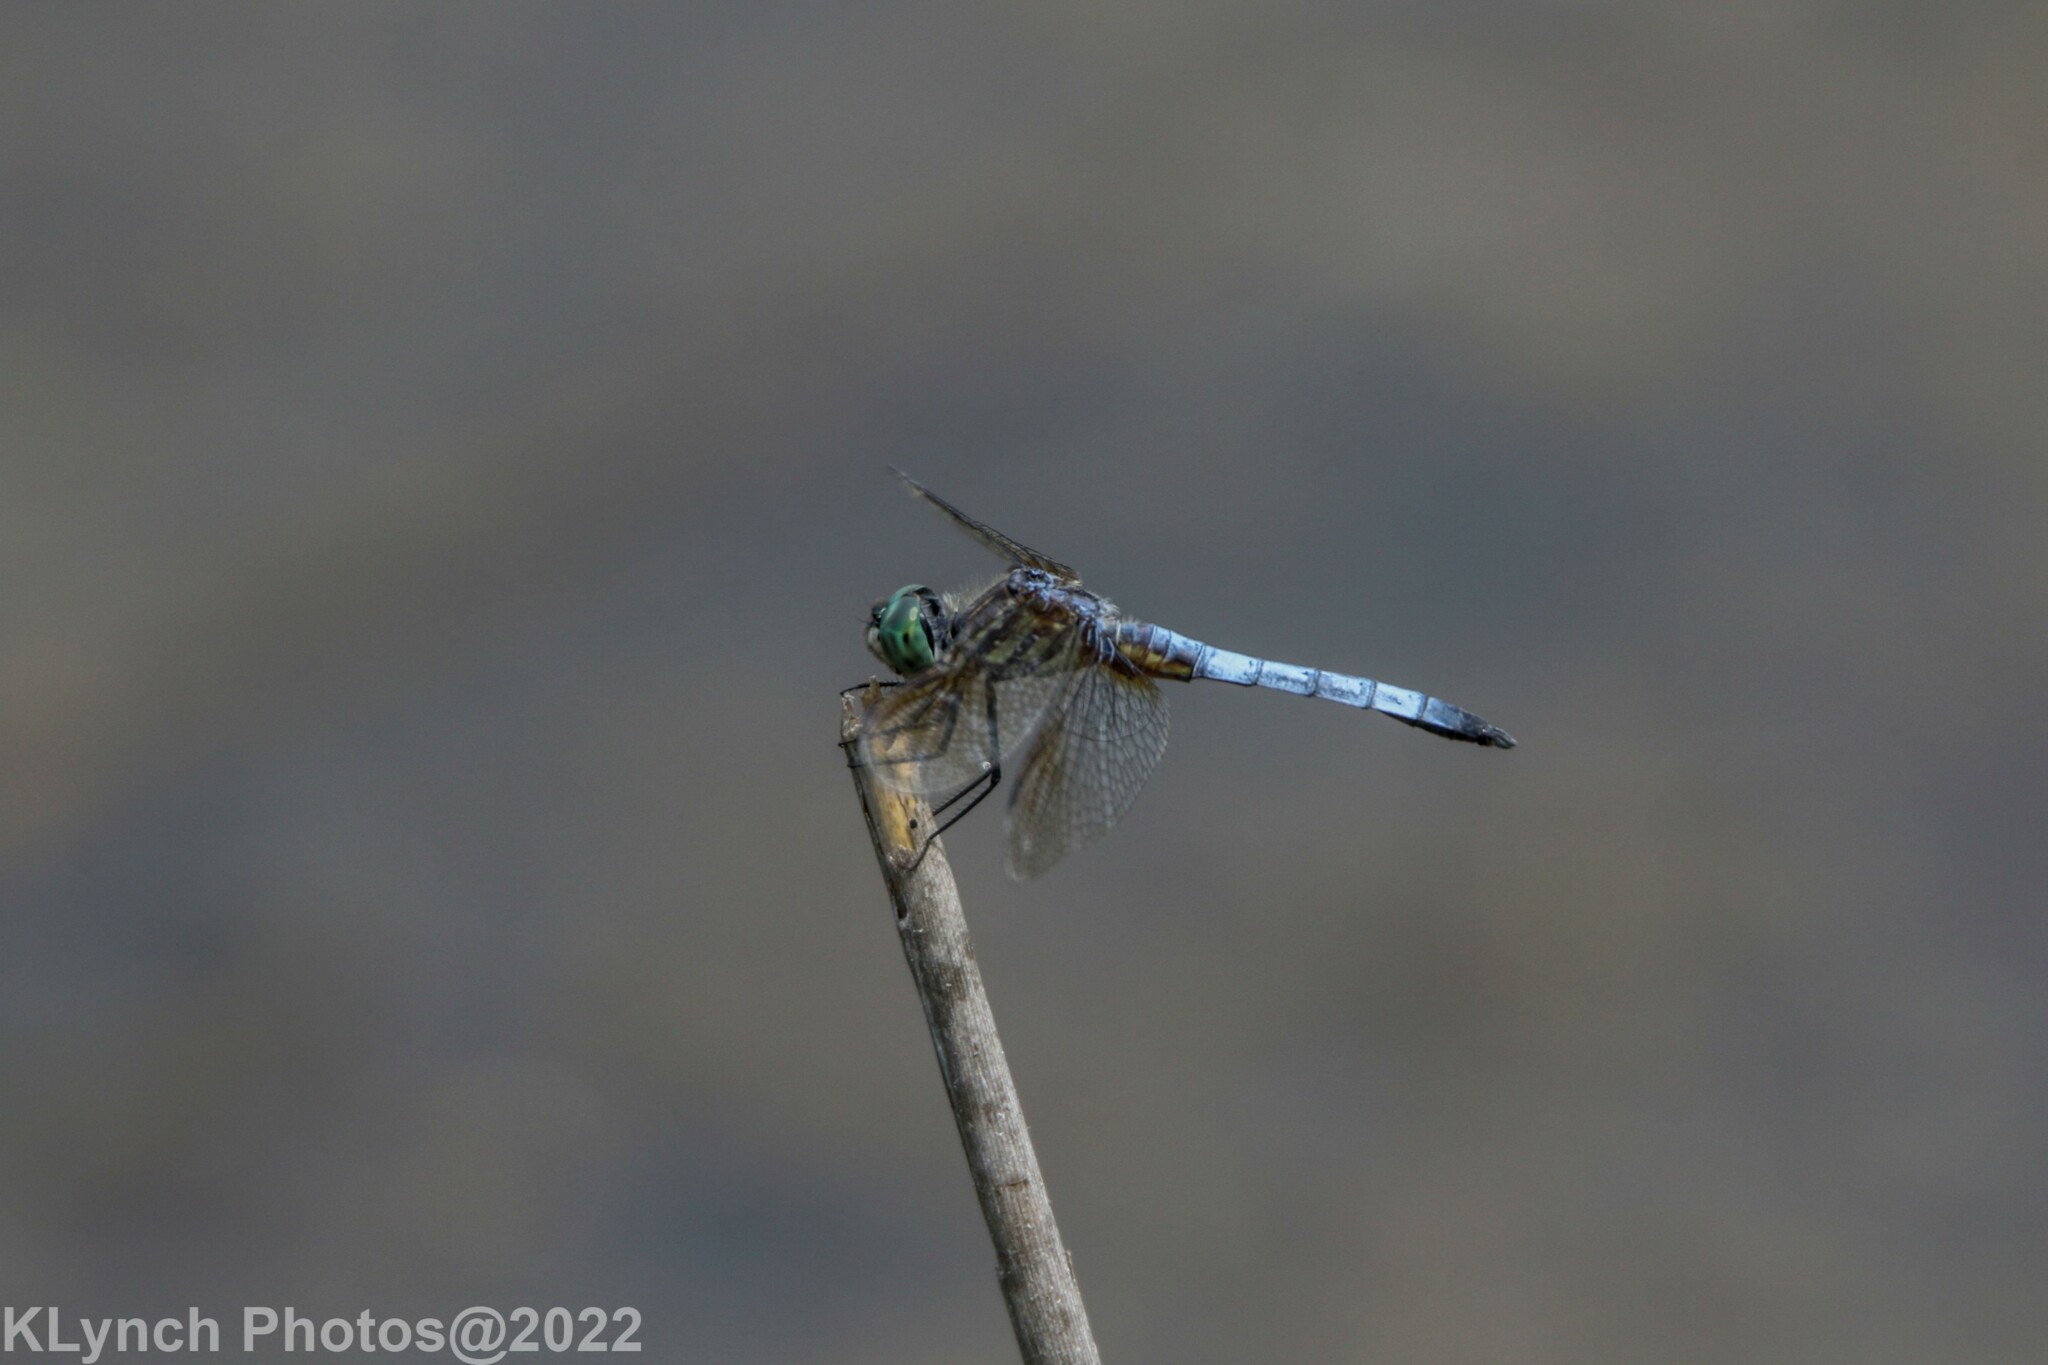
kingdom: Animalia
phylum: Arthropoda
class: Insecta
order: Odonata
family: Libellulidae
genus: Pachydiplax
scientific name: Pachydiplax longipennis
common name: Blue dasher
